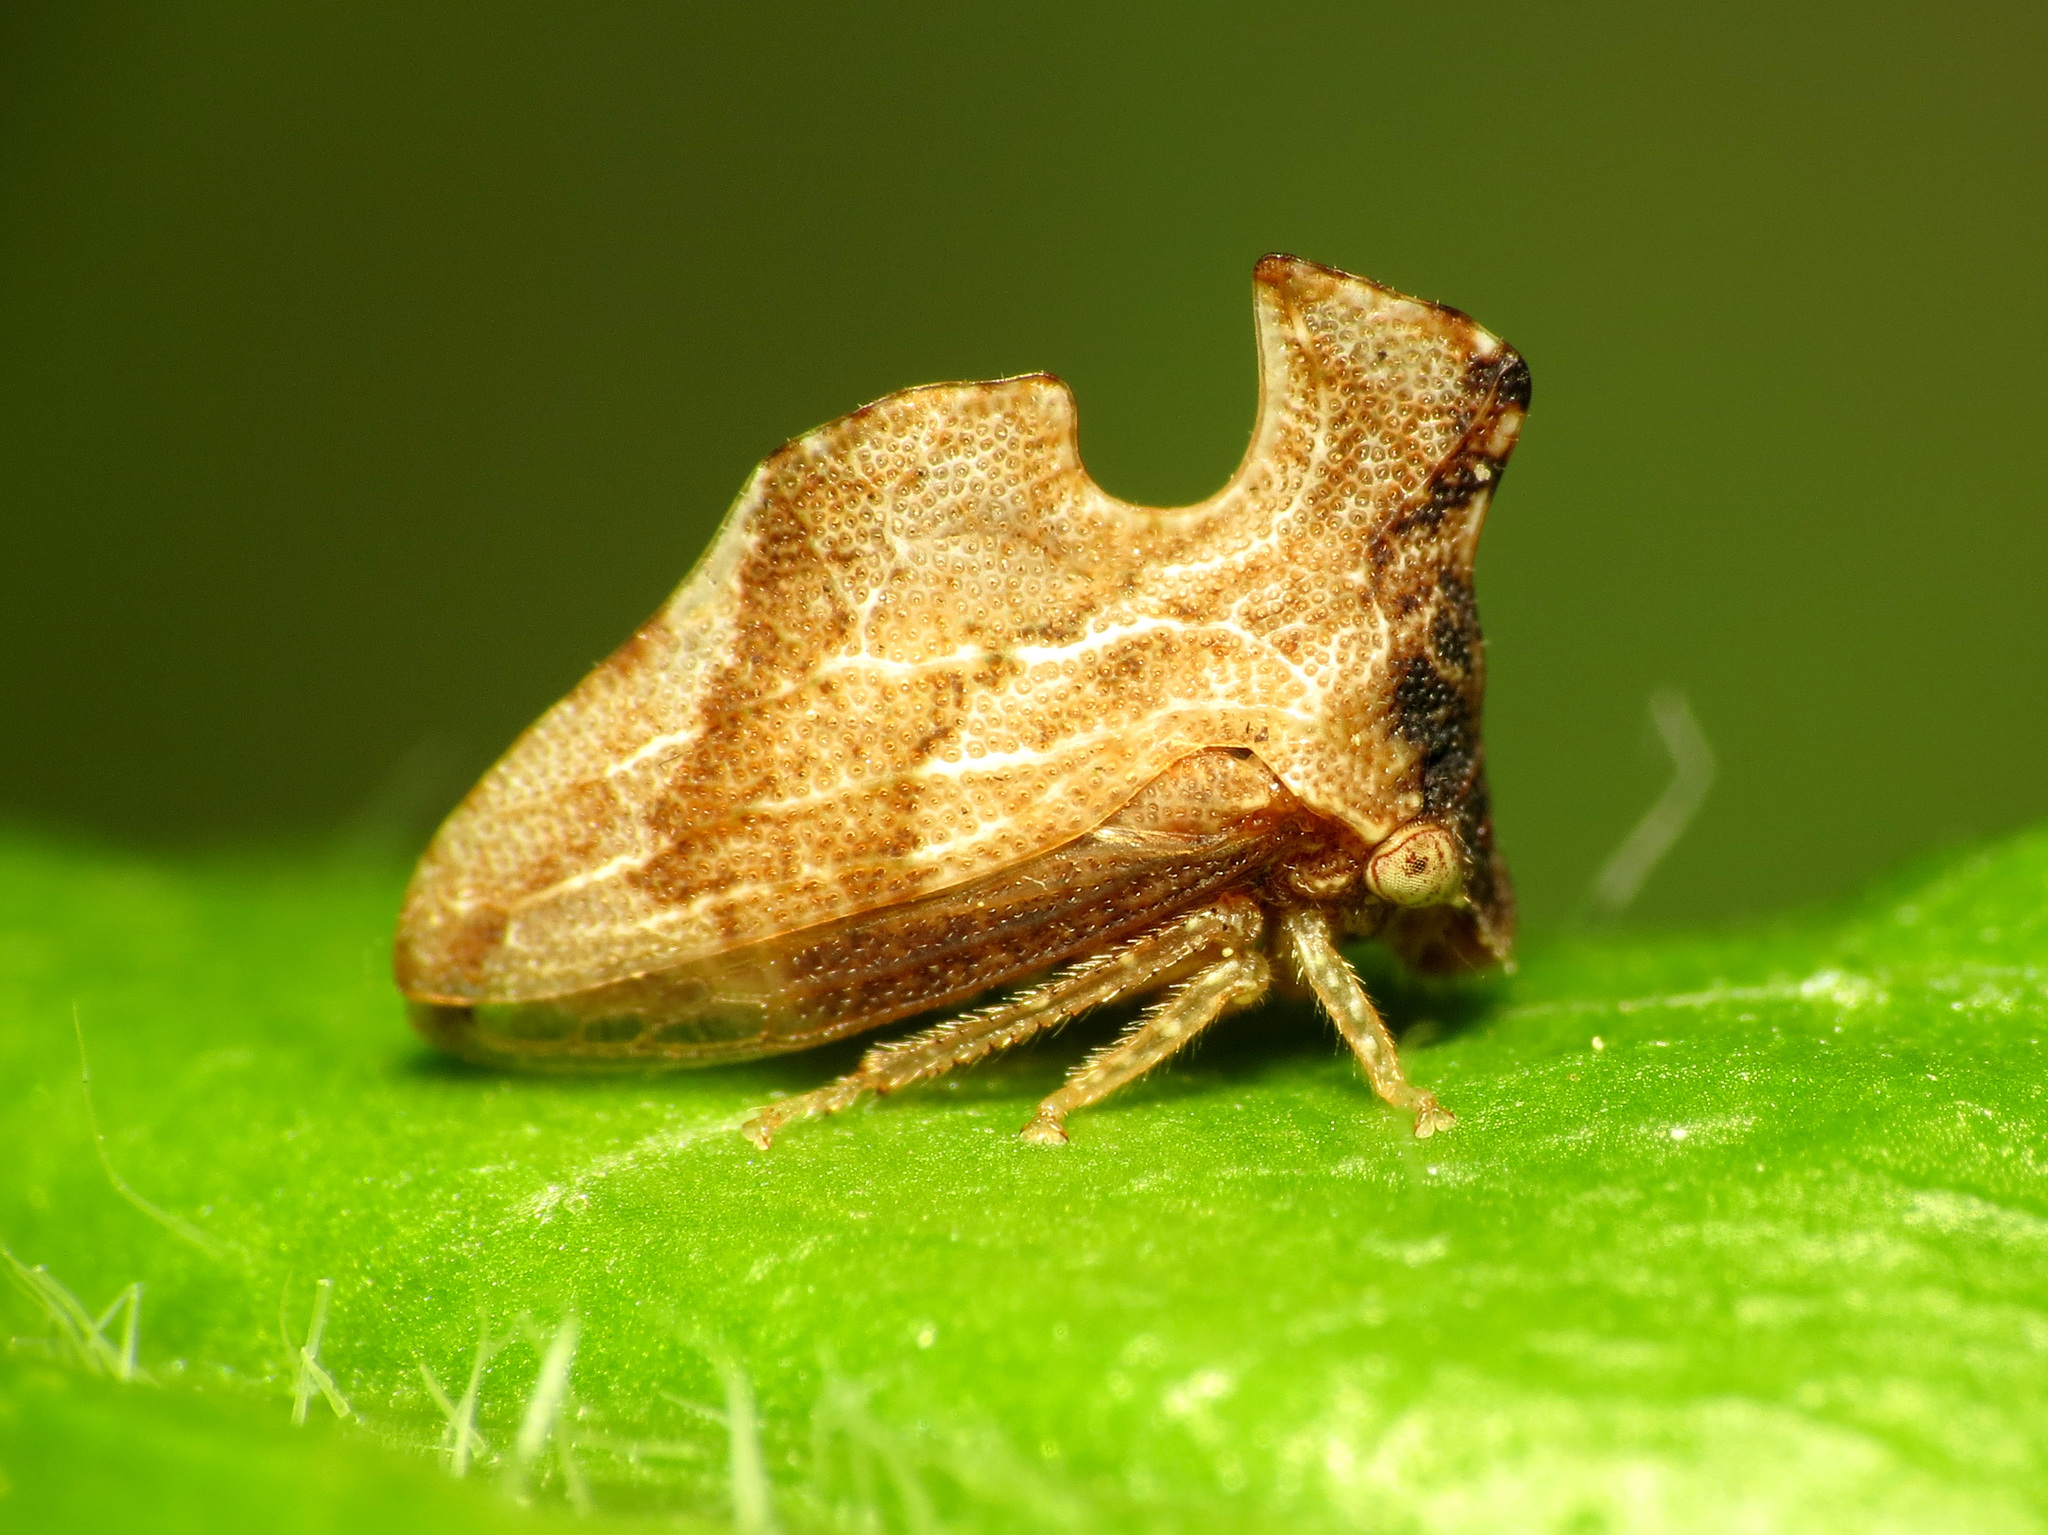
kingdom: Animalia
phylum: Arthropoda
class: Insecta
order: Hemiptera
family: Membracidae
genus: Entylia
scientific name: Entylia carinata
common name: Keeled treehopper
